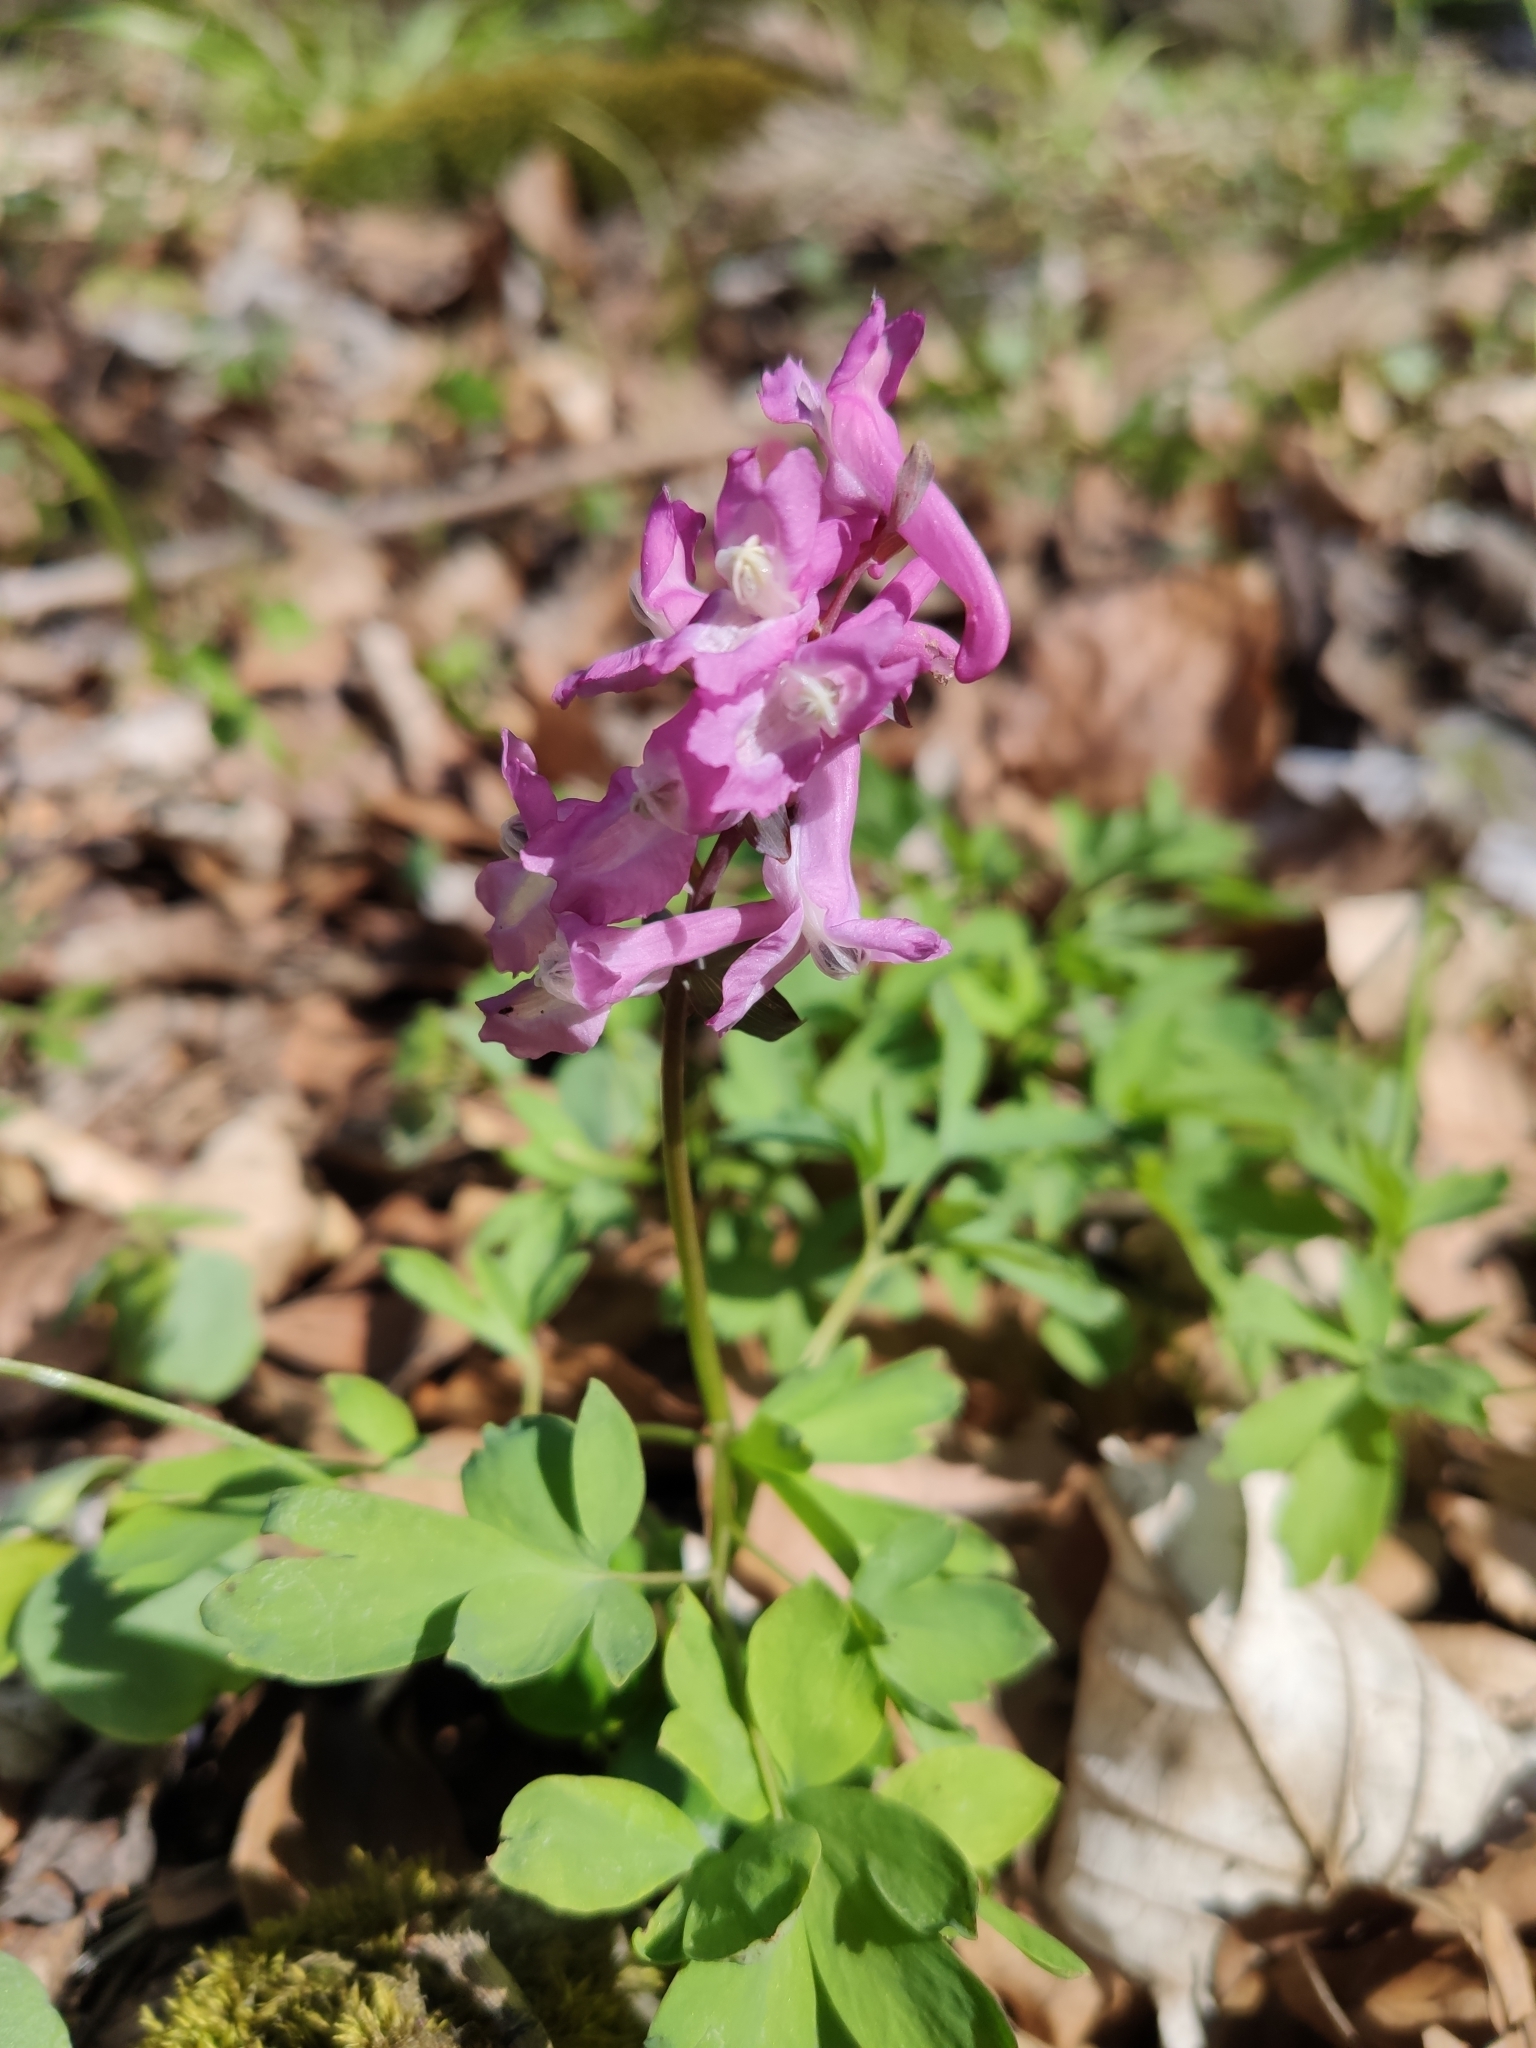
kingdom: Plantae
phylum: Tracheophyta
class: Magnoliopsida
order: Ranunculales
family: Papaveraceae
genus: Corydalis
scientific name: Corydalis cava
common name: Hollowroot
